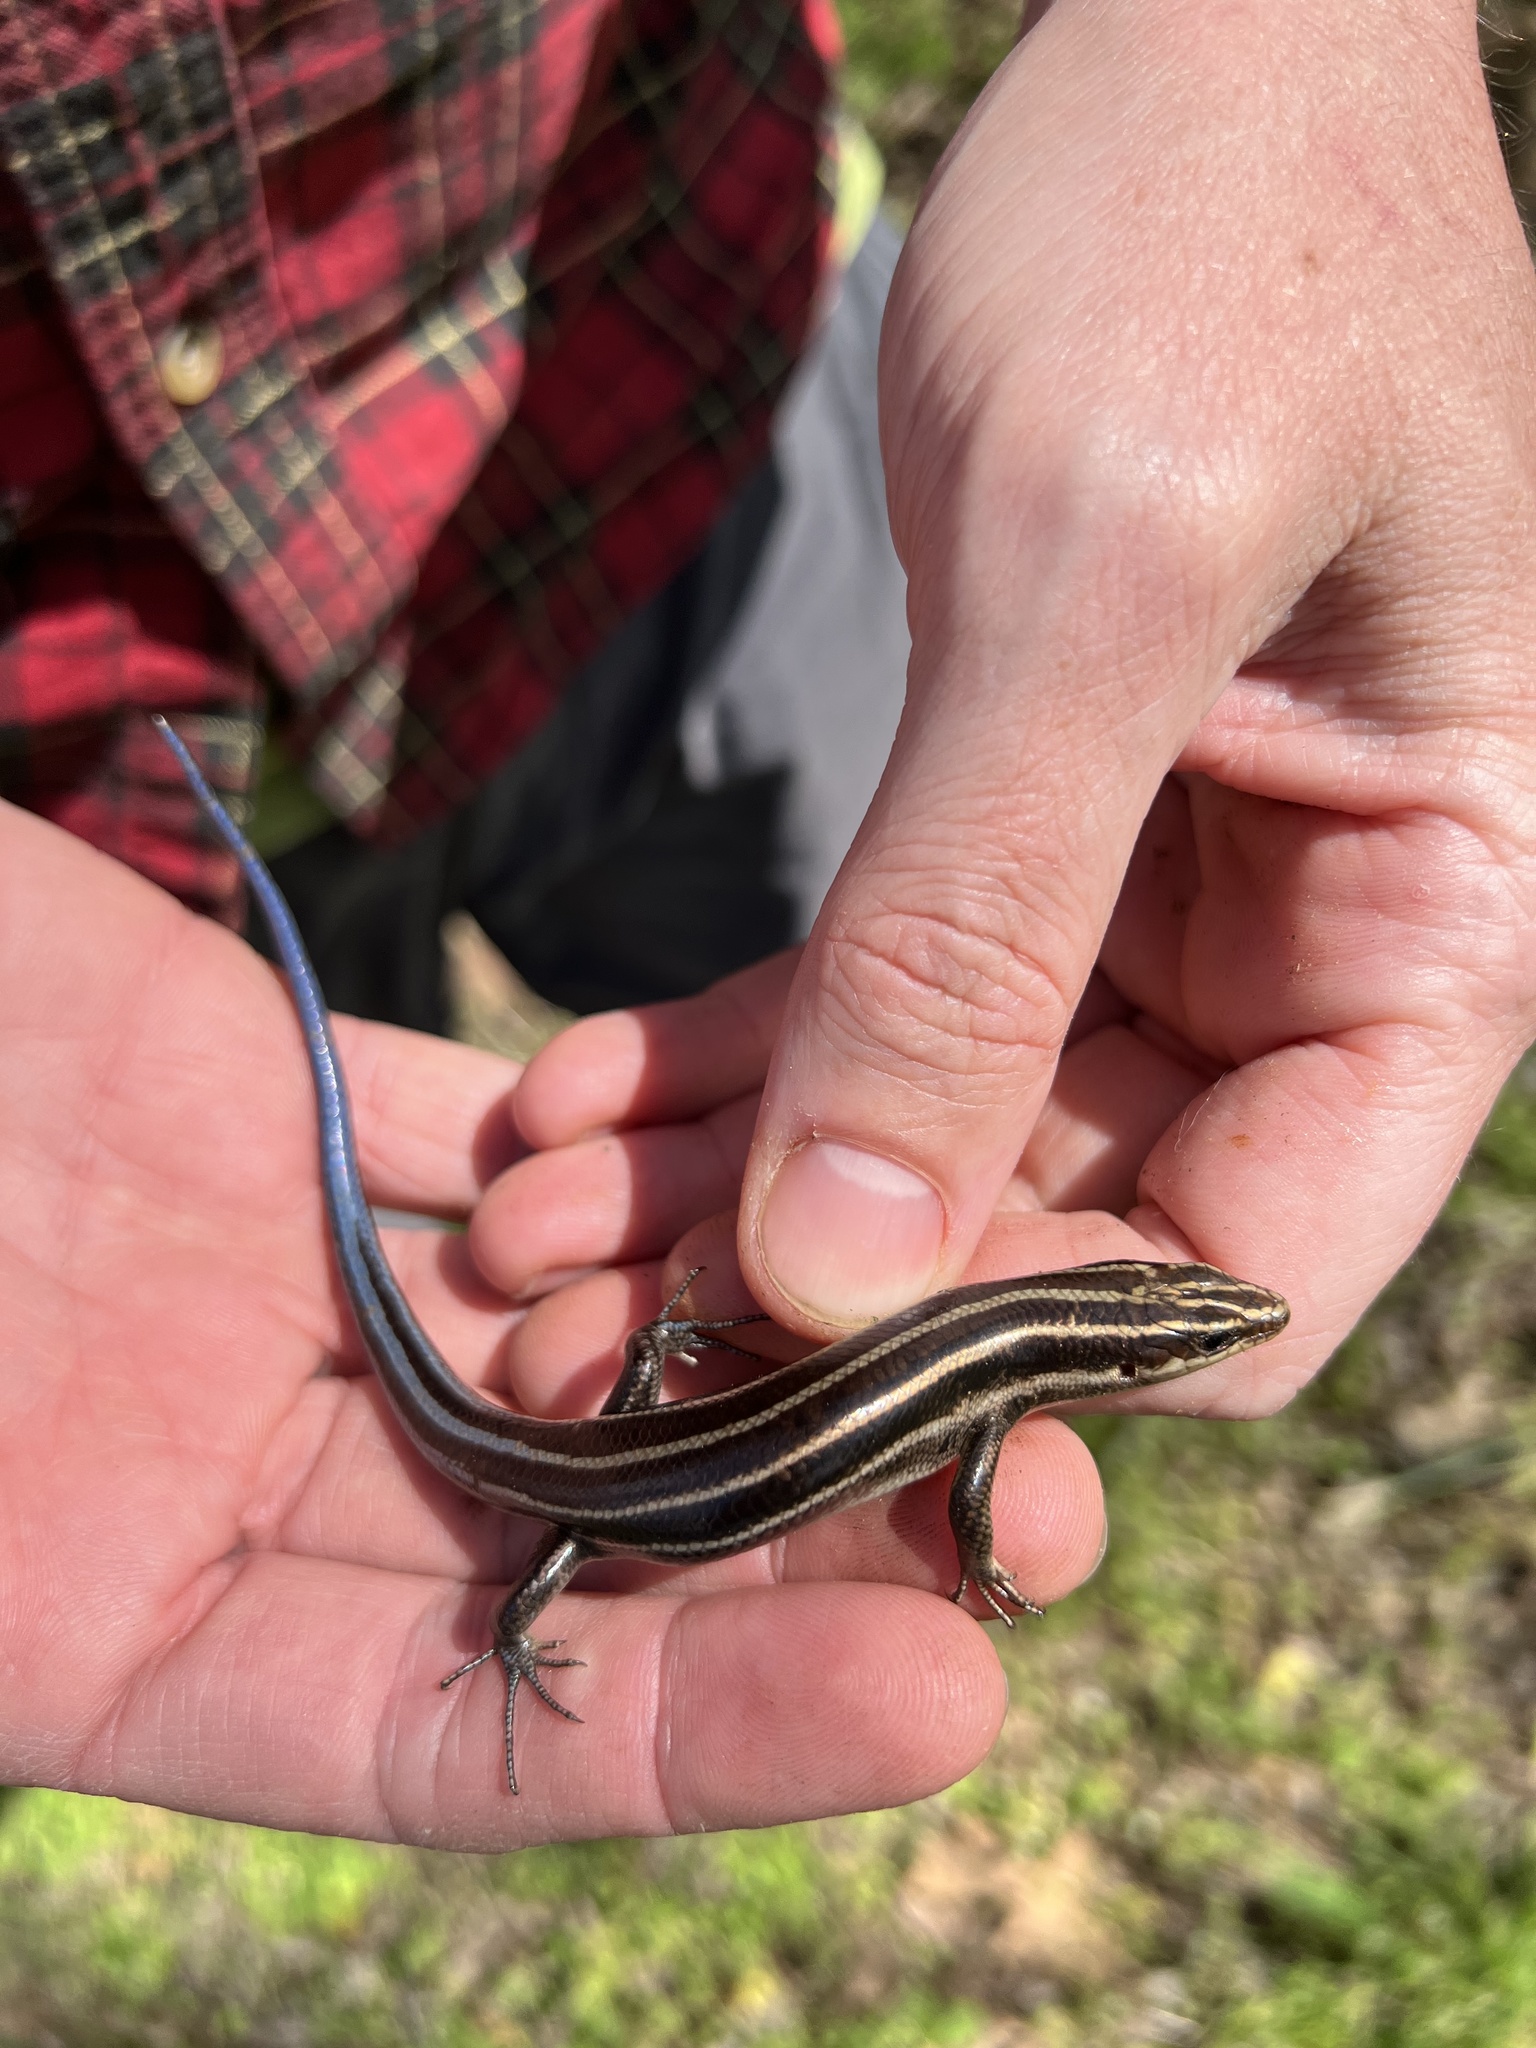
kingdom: Animalia
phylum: Chordata
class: Squamata
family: Scincidae
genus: Plestiodon
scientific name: Plestiodon fasciatus
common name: Five-lined skink
